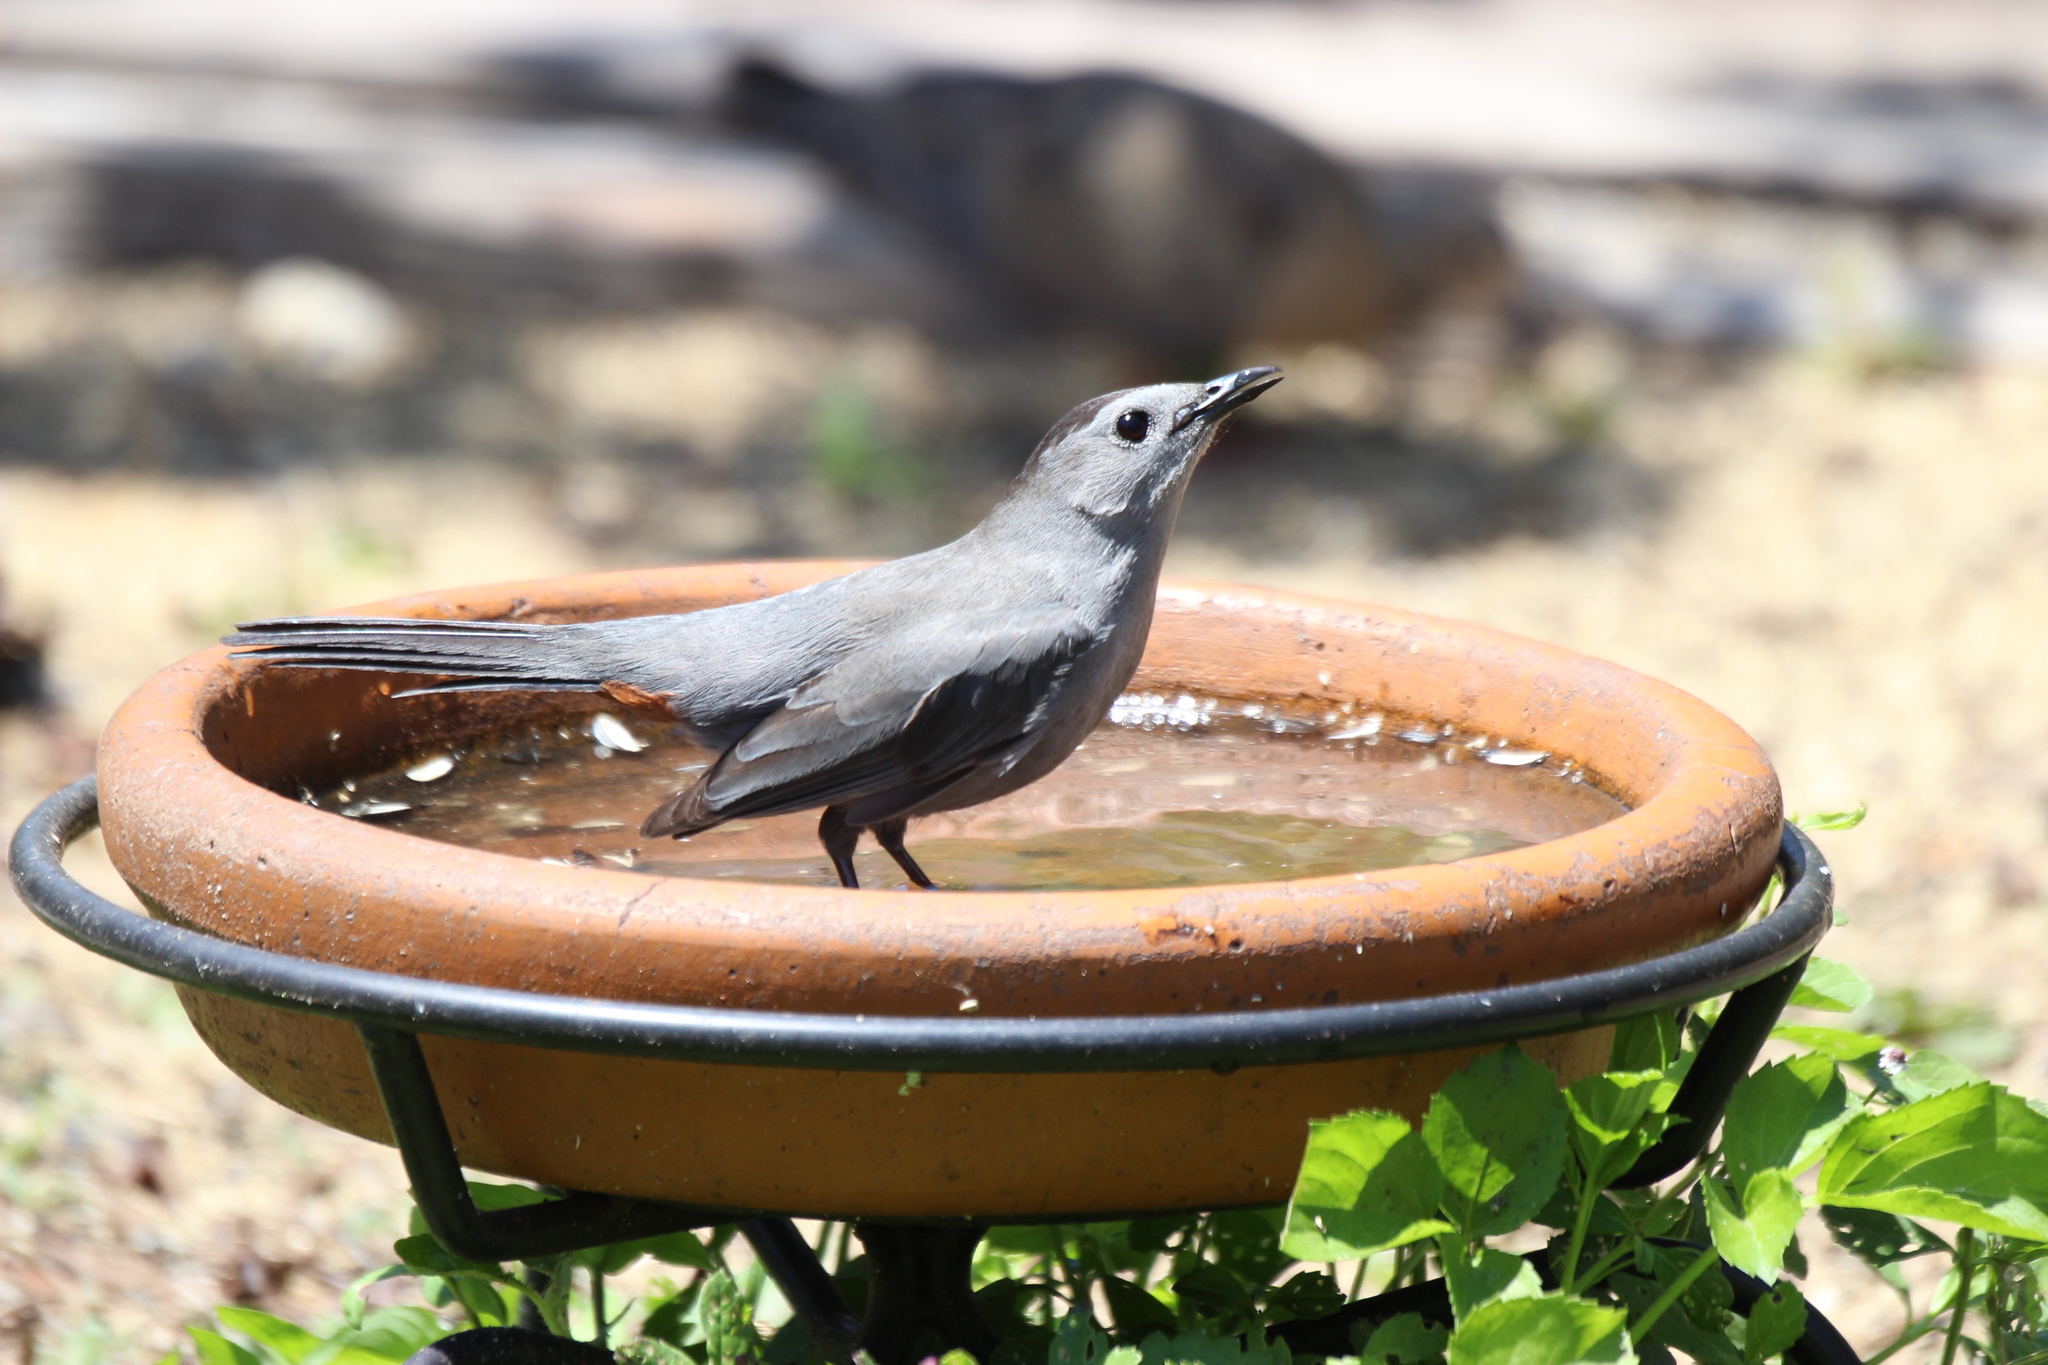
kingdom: Animalia
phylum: Chordata
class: Aves
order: Passeriformes
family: Mimidae
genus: Dumetella
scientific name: Dumetella carolinensis
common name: Gray catbird
